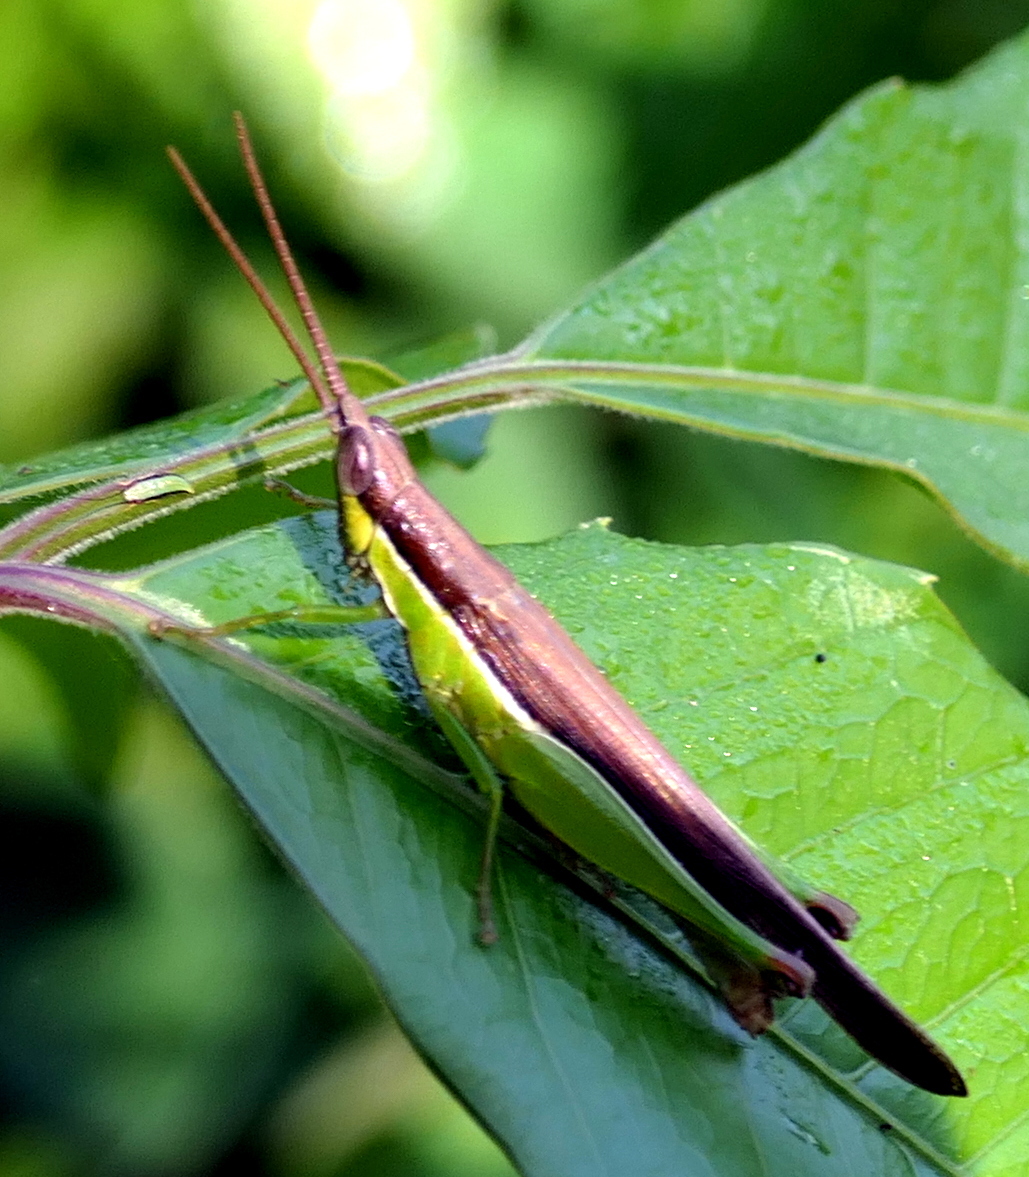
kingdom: Animalia
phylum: Arthropoda
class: Insecta
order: Orthoptera
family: Acrididae
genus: Stenopola
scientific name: Stenopola dorsalis
